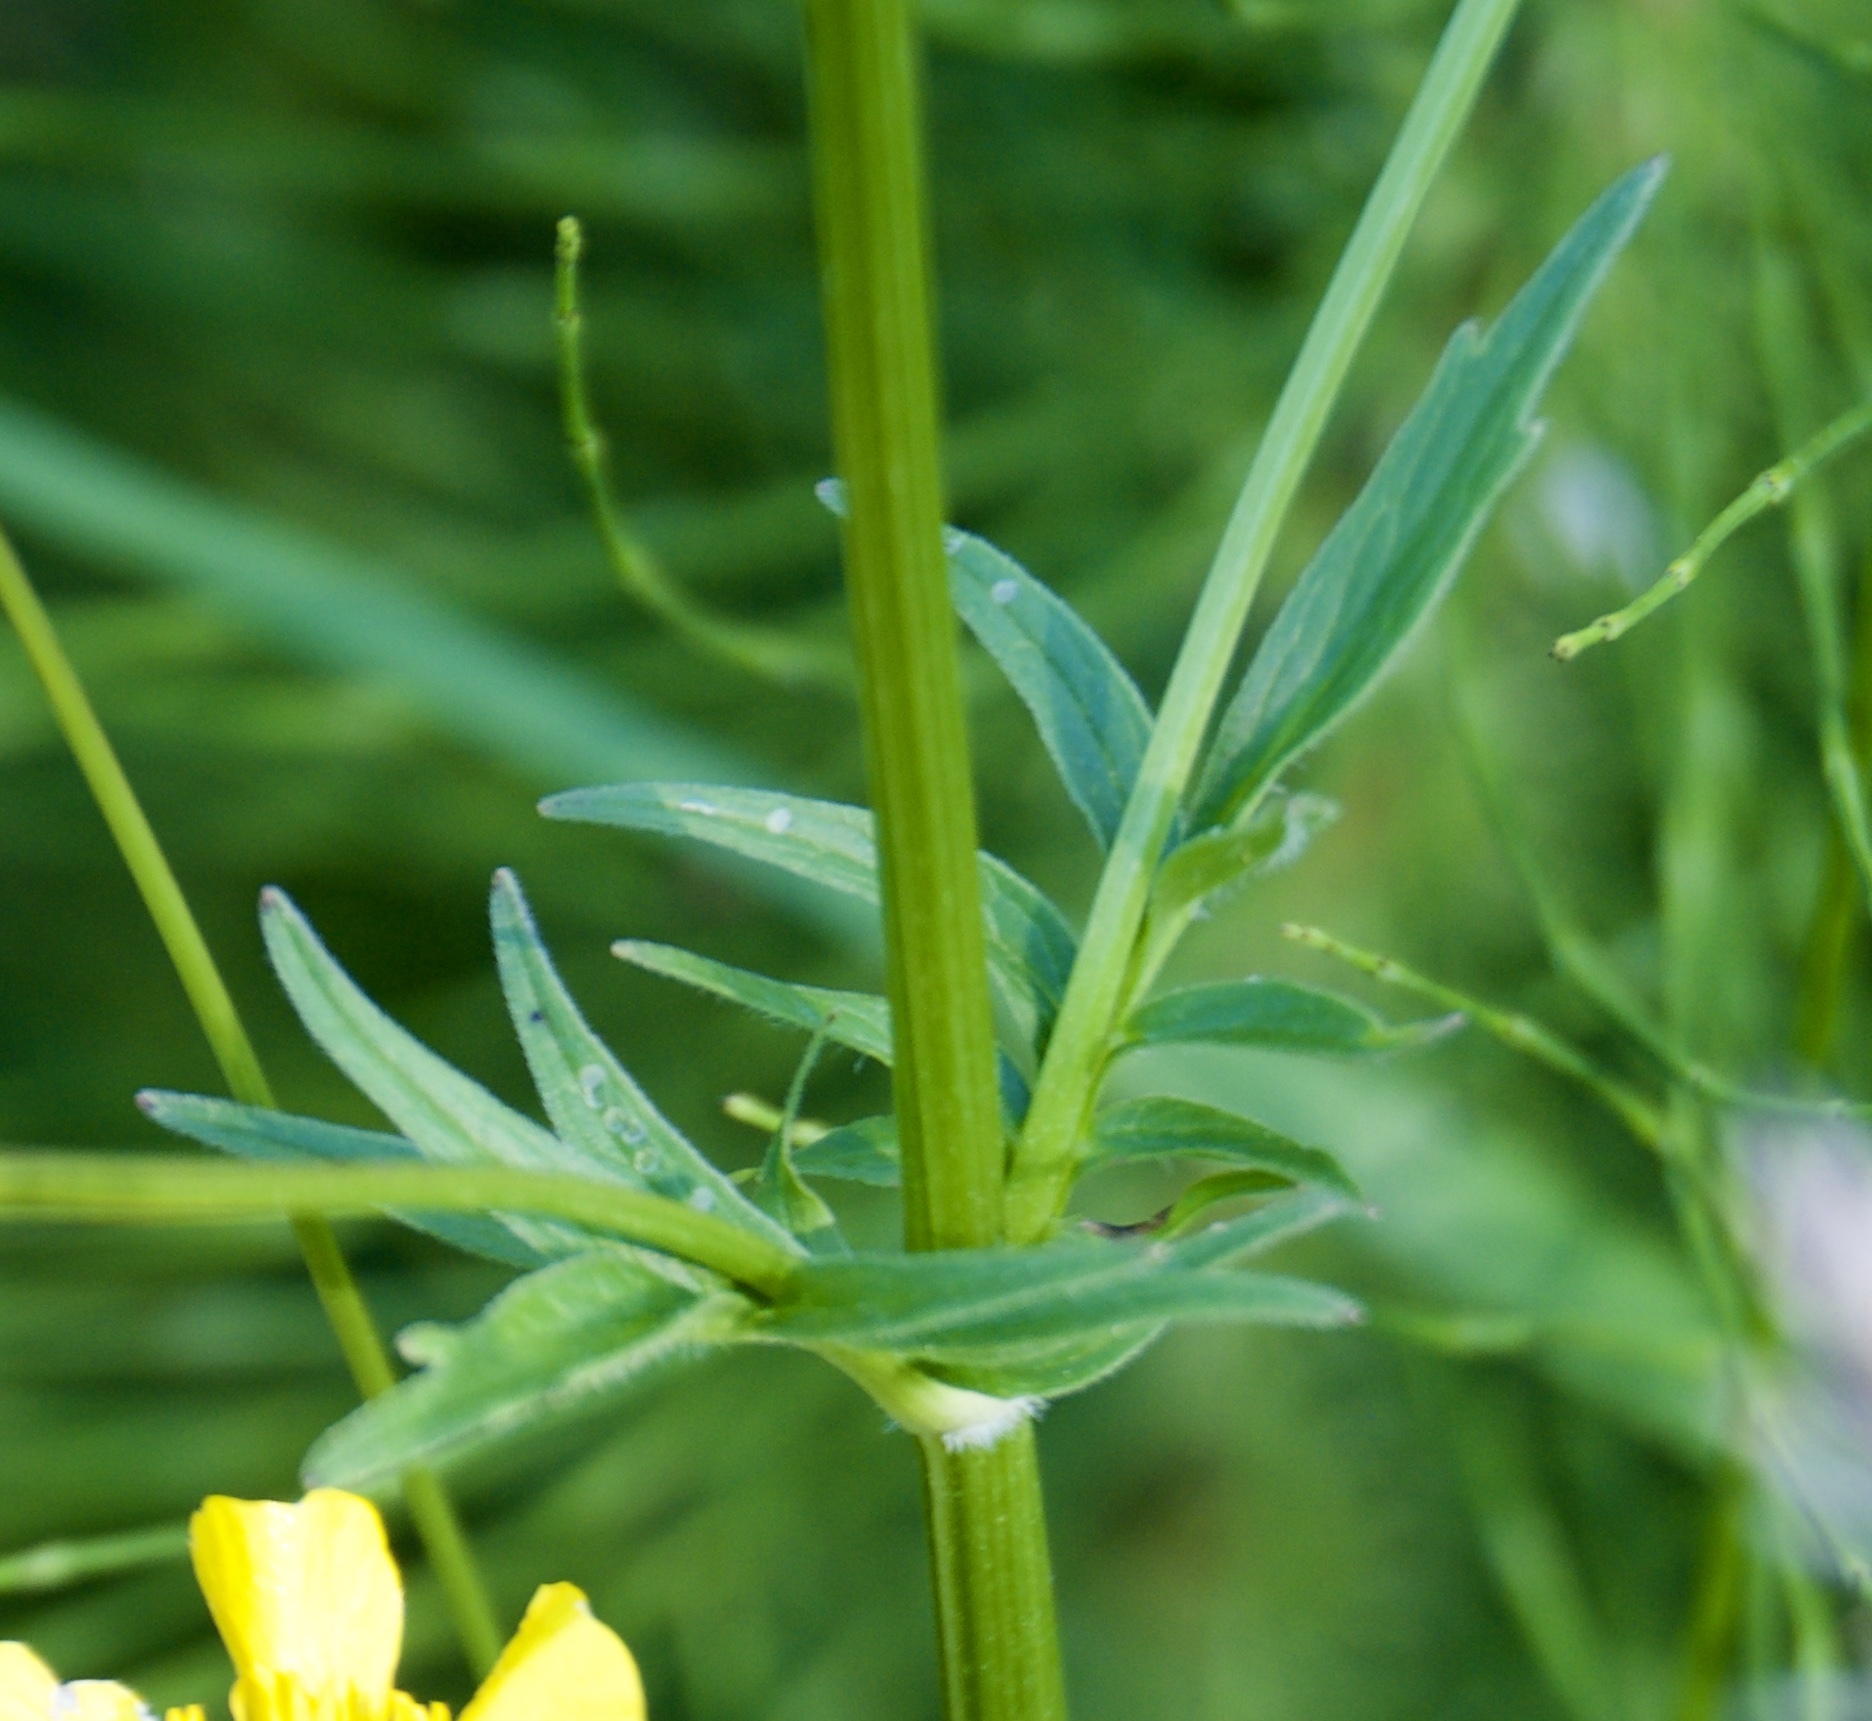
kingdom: Plantae
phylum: Tracheophyta
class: Magnoliopsida
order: Dipsacales
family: Caprifoliaceae
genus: Valeriana
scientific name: Valeriana officinalis
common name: Common valerian
